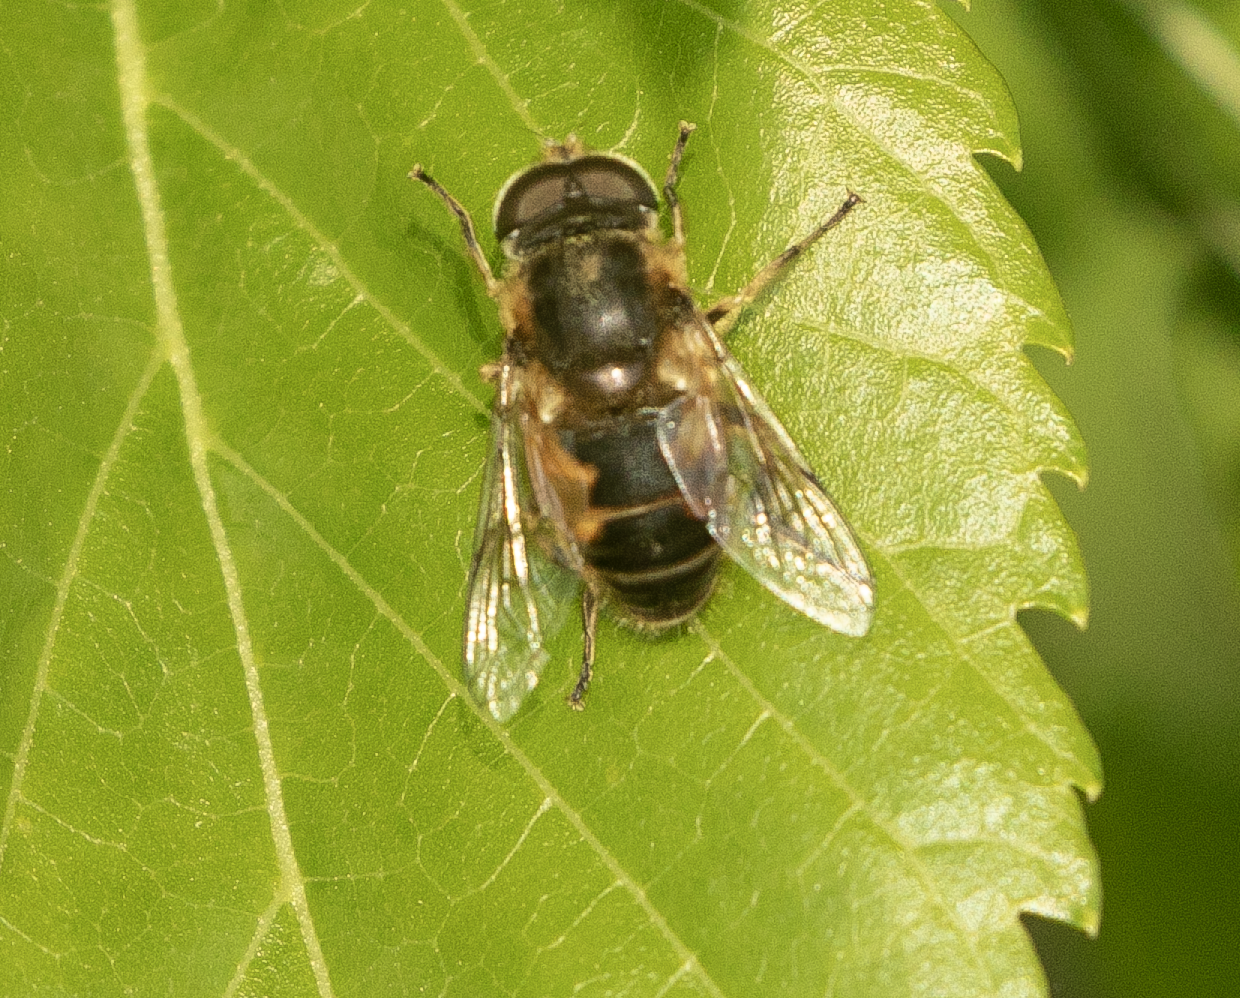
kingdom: Animalia
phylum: Arthropoda
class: Insecta
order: Diptera
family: Syrphidae
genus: Eristalis
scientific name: Eristalis arbustorum
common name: Hover fly
